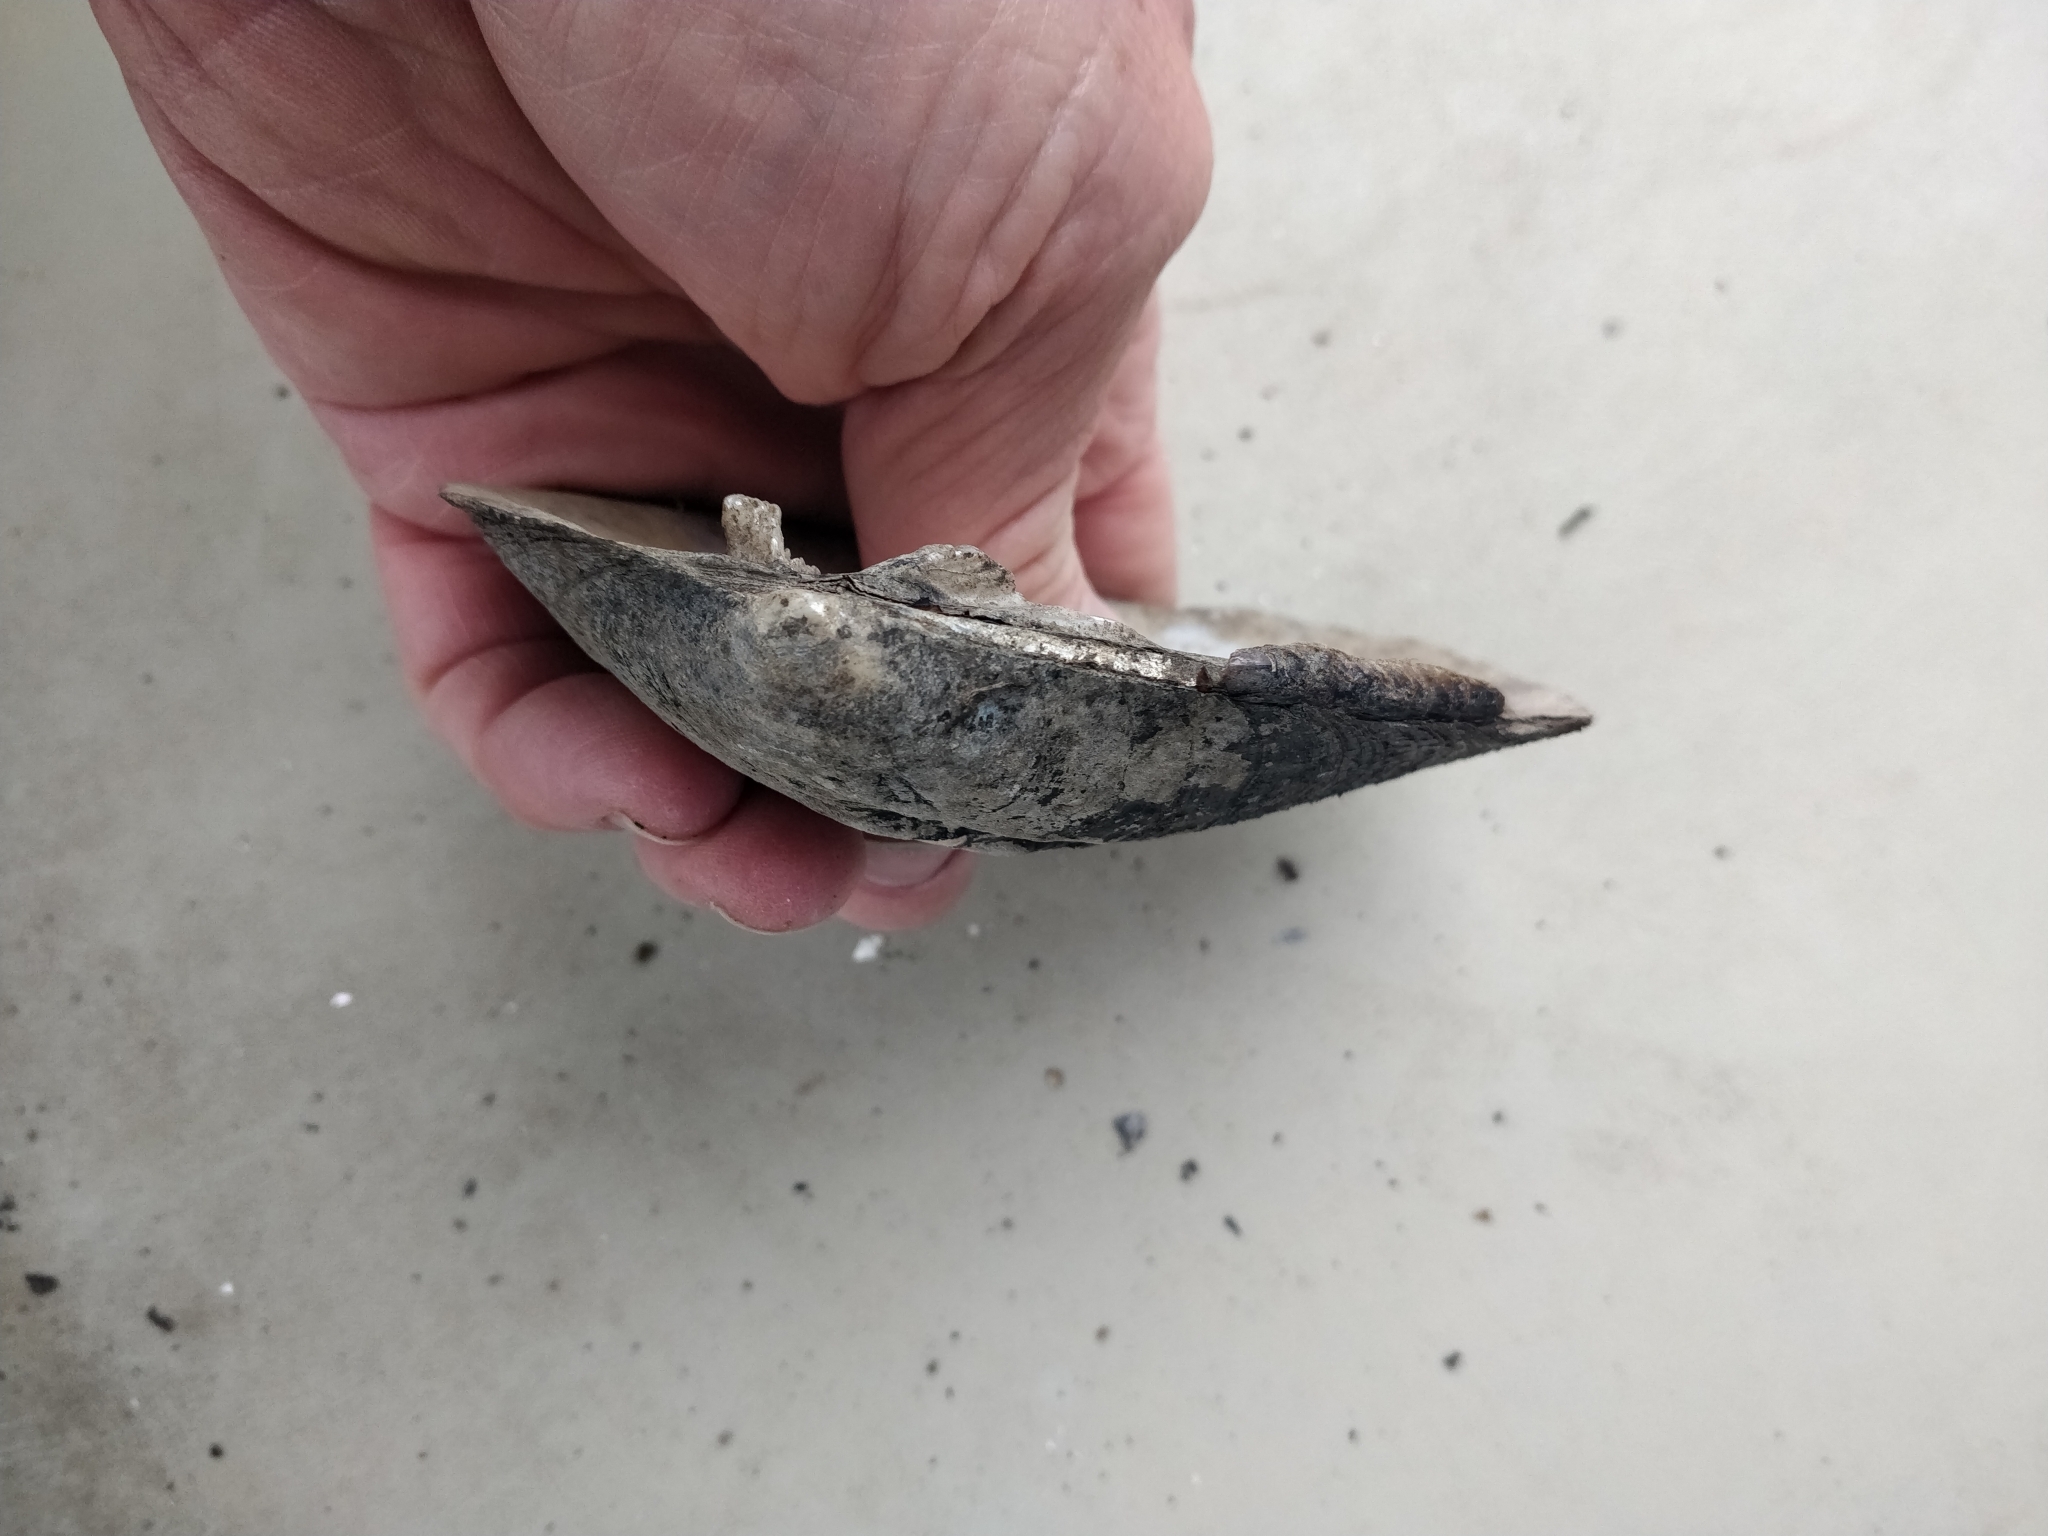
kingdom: Animalia
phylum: Mollusca
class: Bivalvia
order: Unionida
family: Unionidae
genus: Amblema
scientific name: Amblema plicata
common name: Threeridge
